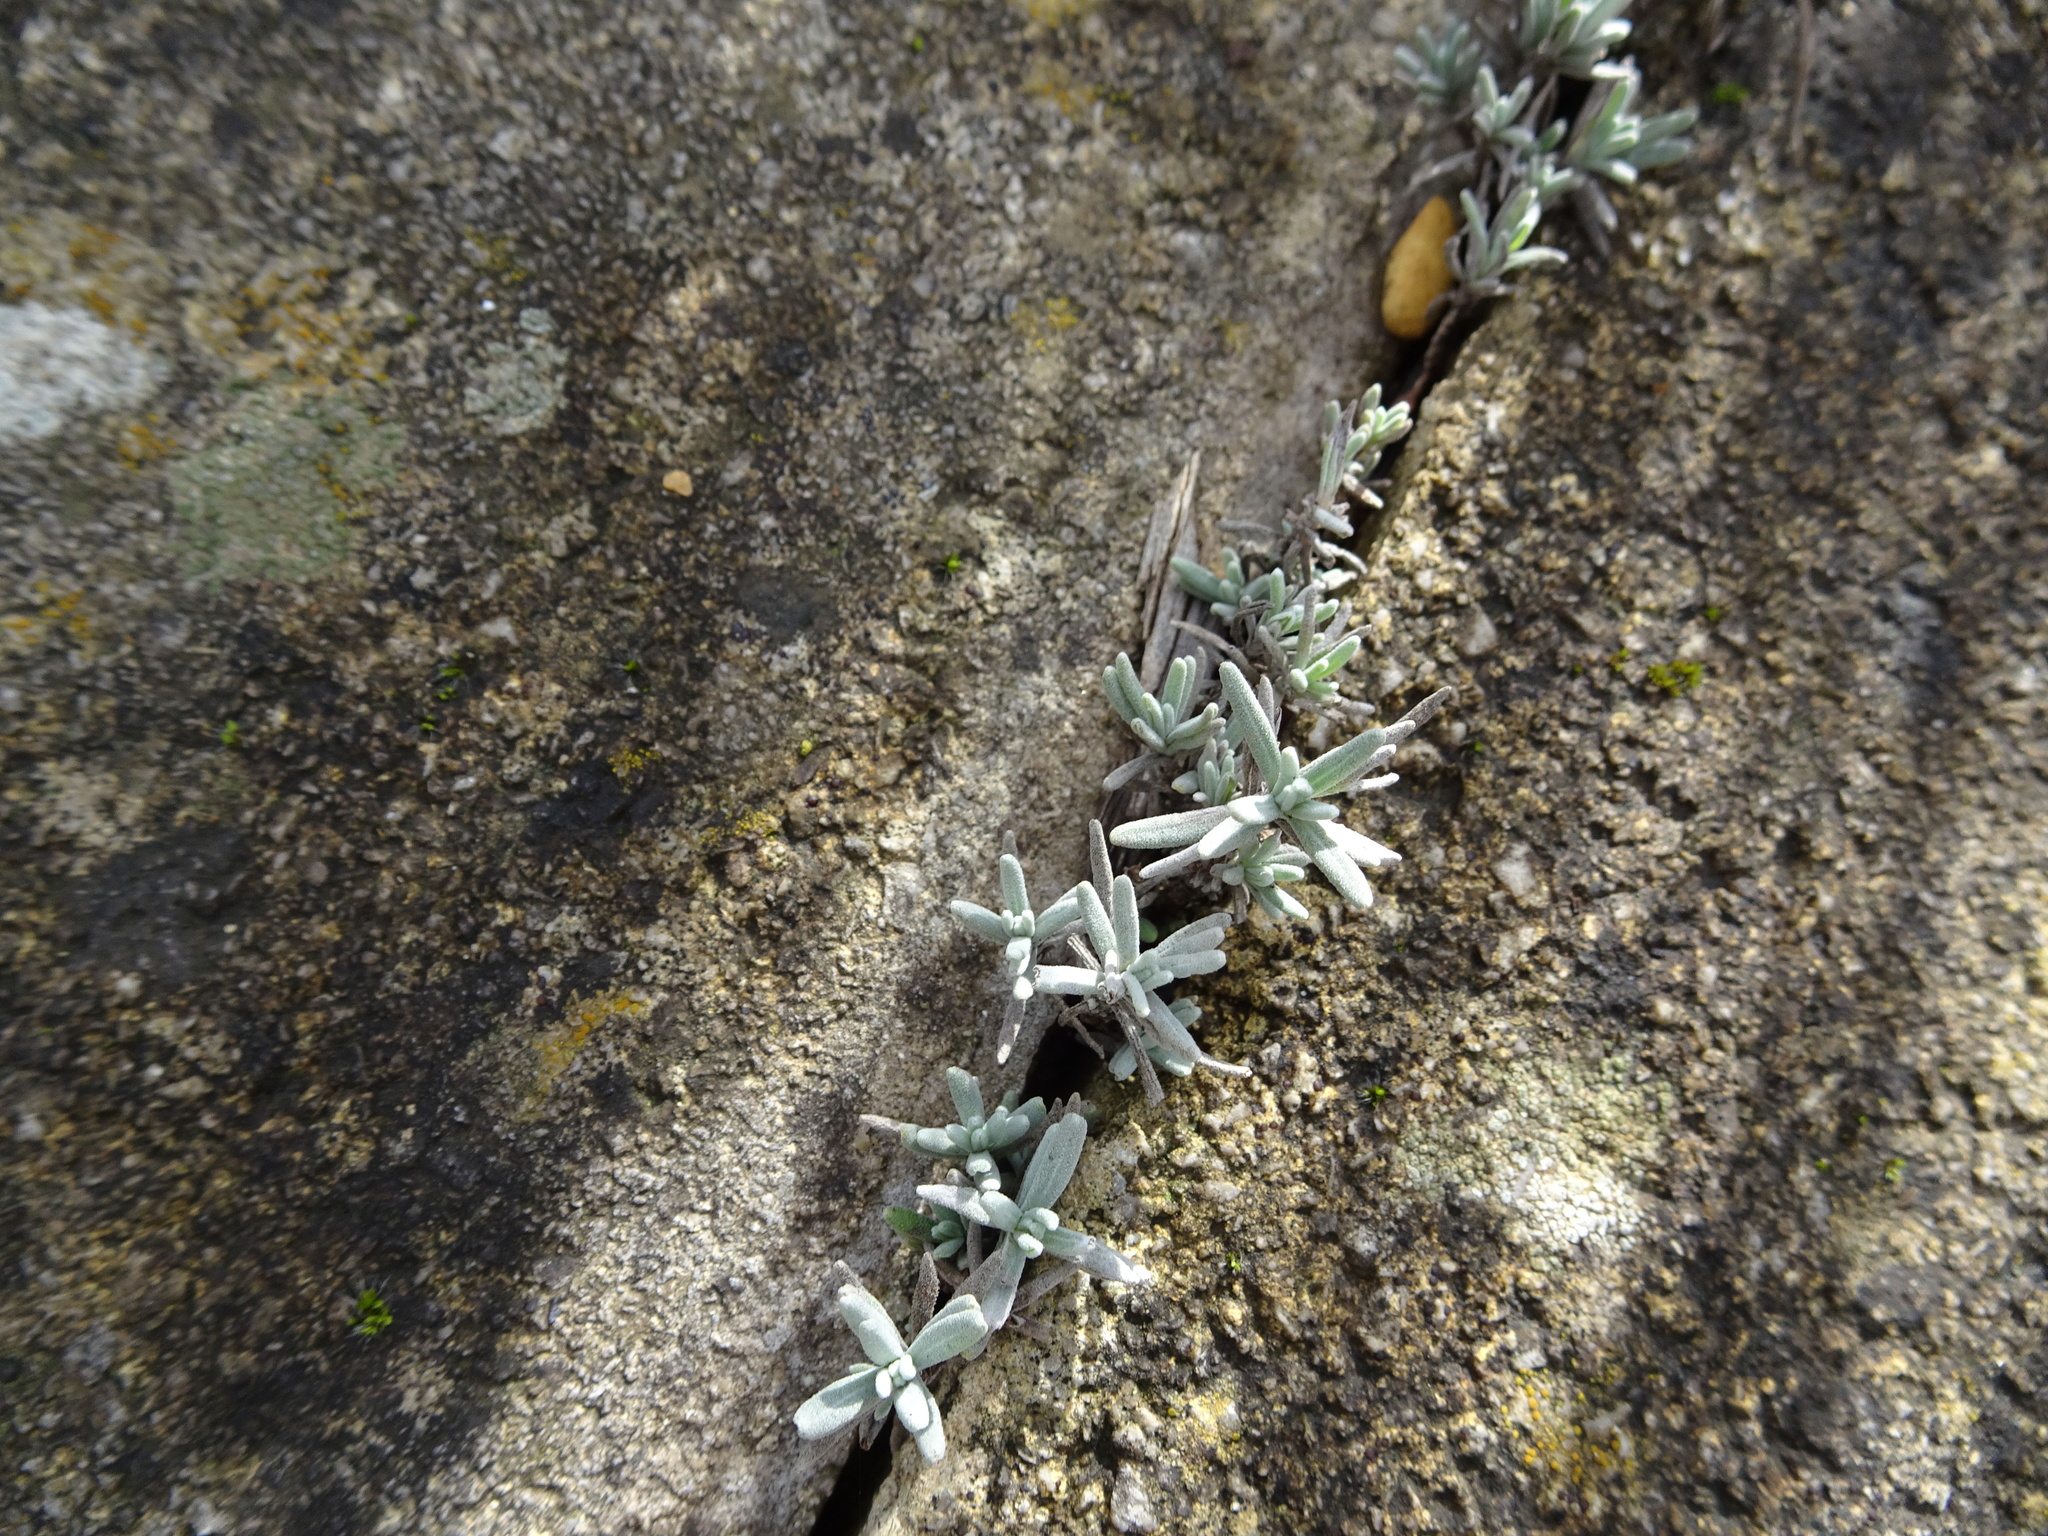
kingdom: Plantae
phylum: Tracheophyta
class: Magnoliopsida
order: Lamiales
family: Lamiaceae
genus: Lavandula
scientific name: Lavandula angustifolia
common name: Garden lavender
